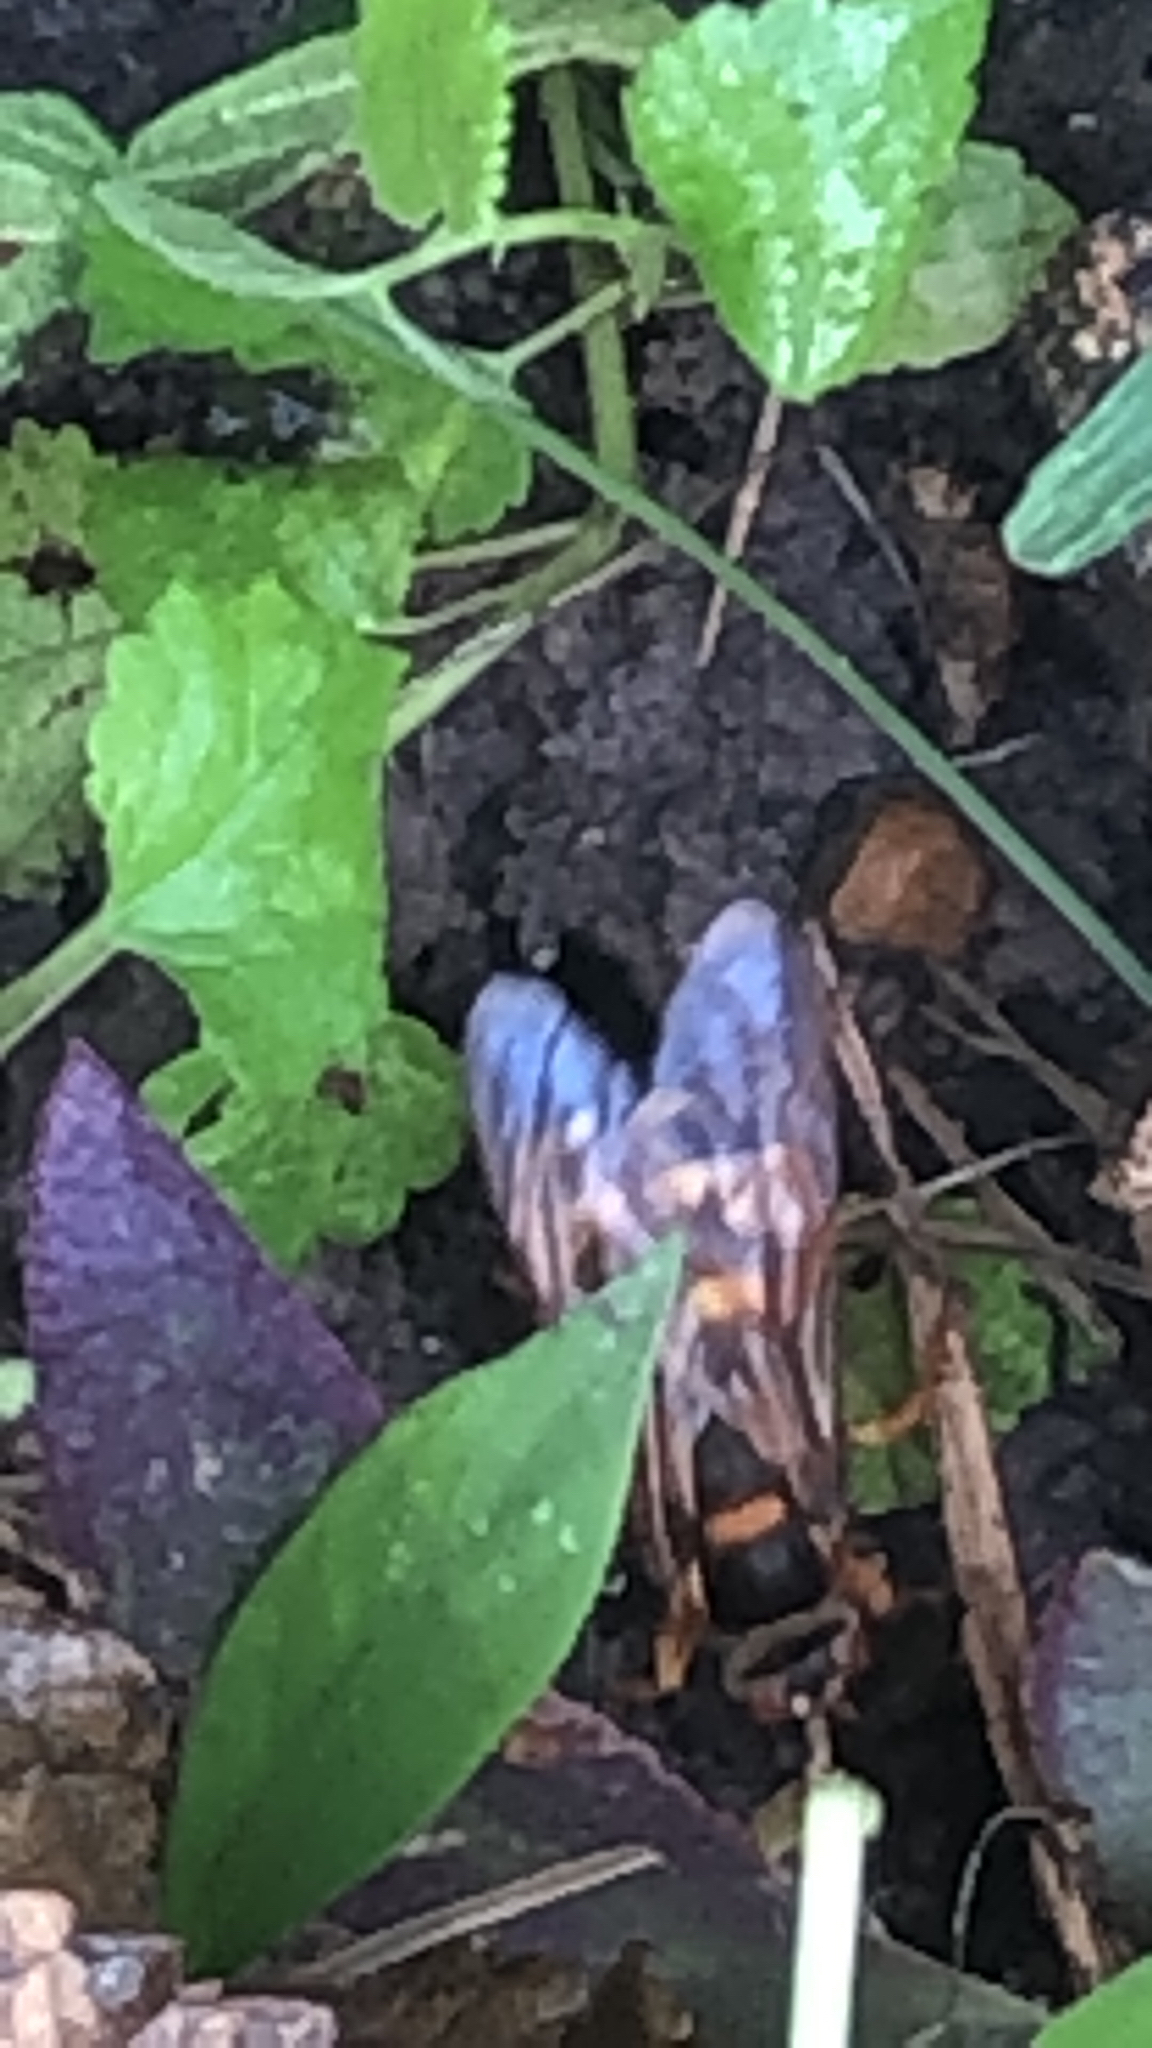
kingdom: Animalia
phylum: Arthropoda
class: Insecta
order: Hymenoptera
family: Crabronidae
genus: Sphecius
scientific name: Sphecius speciosus
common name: Cicada killer
